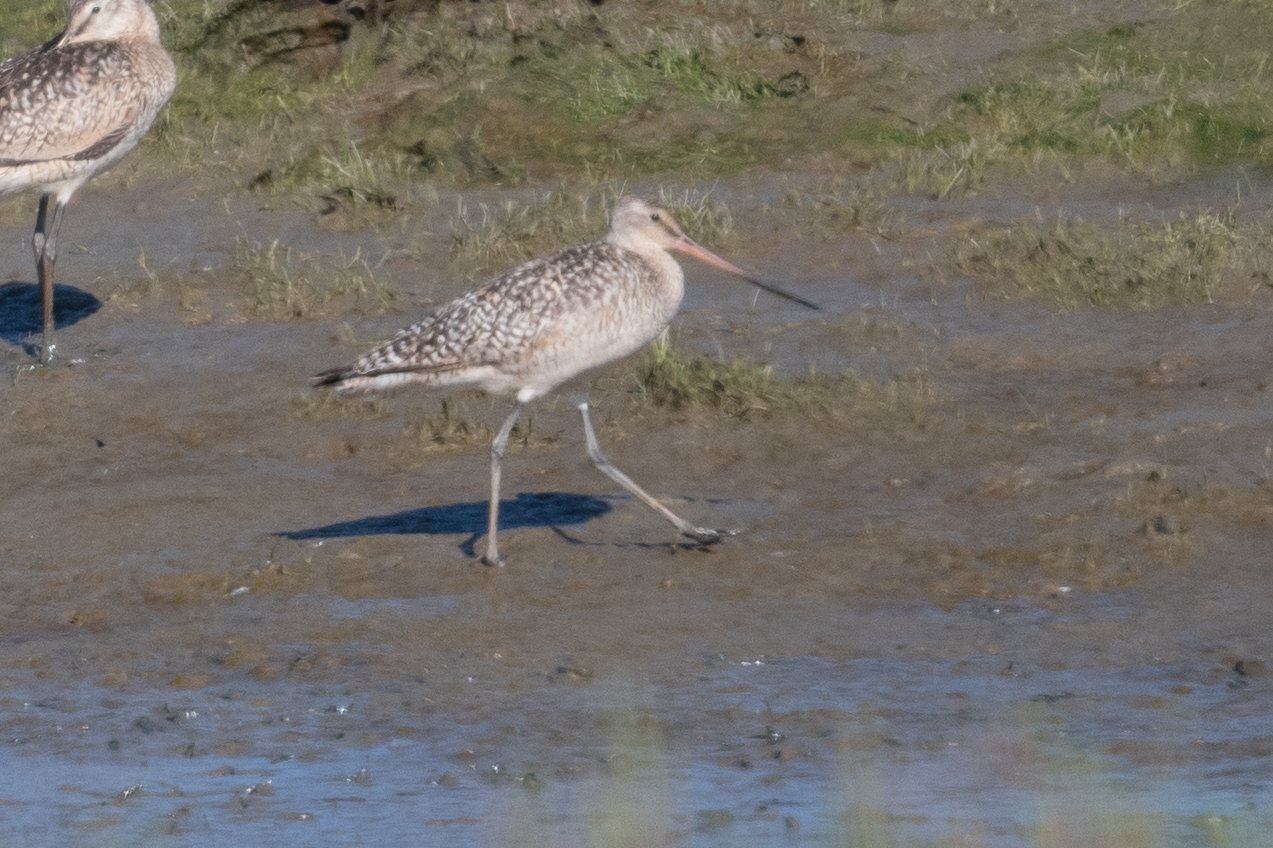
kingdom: Animalia
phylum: Chordata
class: Aves
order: Charadriiformes
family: Scolopacidae
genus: Limosa
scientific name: Limosa fedoa
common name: Marbled godwit
